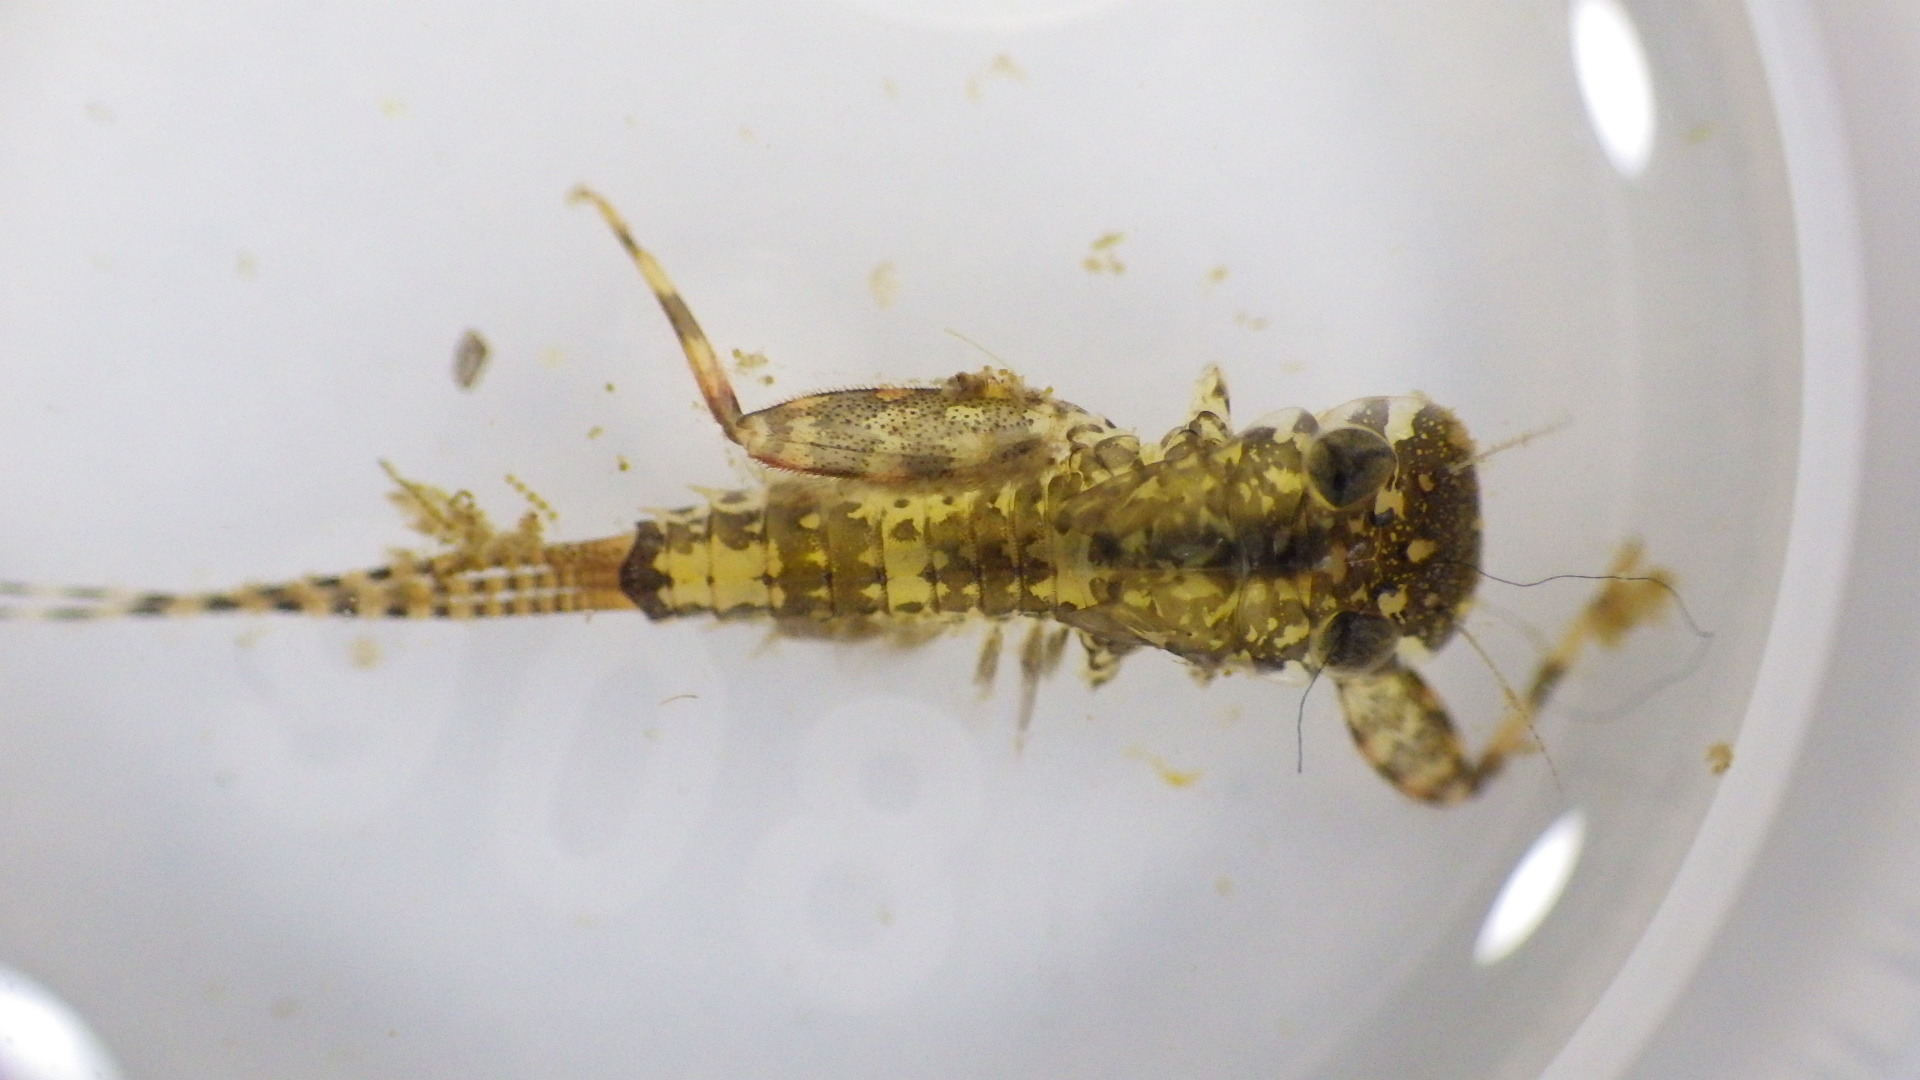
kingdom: Animalia
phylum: Arthropoda
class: Insecta
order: Ephemeroptera
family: Heptageniidae
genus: Stenonema
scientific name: Stenonema femoratum
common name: Dark cahill
